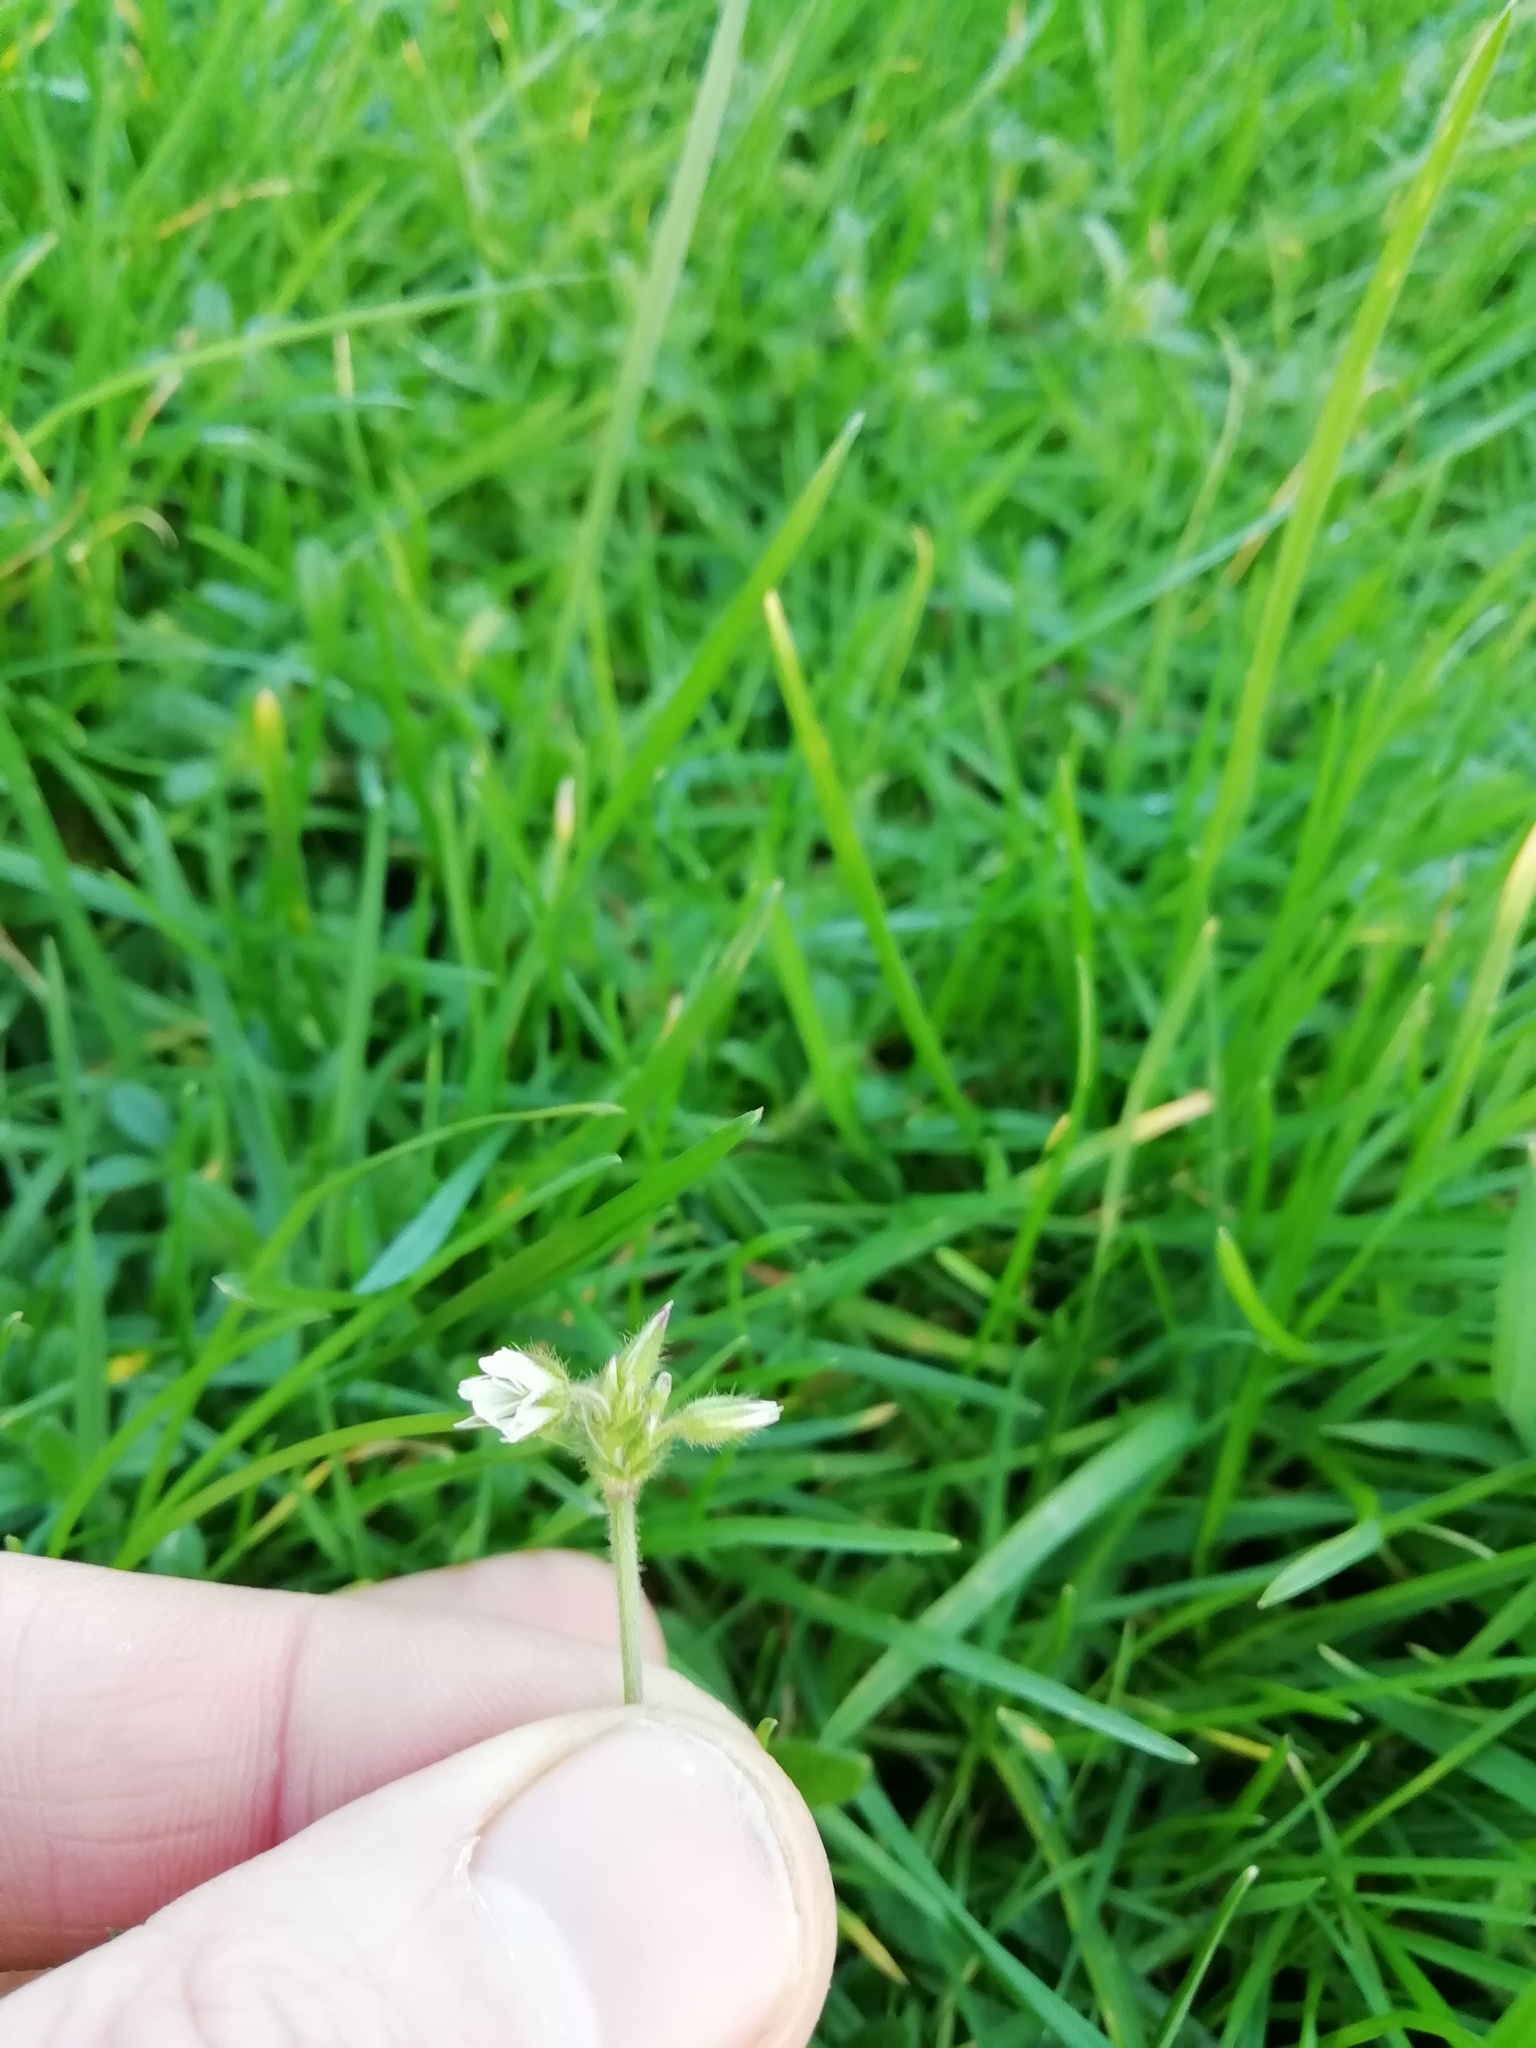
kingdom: Plantae
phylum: Tracheophyta
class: Magnoliopsida
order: Caryophyllales
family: Caryophyllaceae
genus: Cerastium
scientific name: Cerastium fontanum
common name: Common mouse-ear
